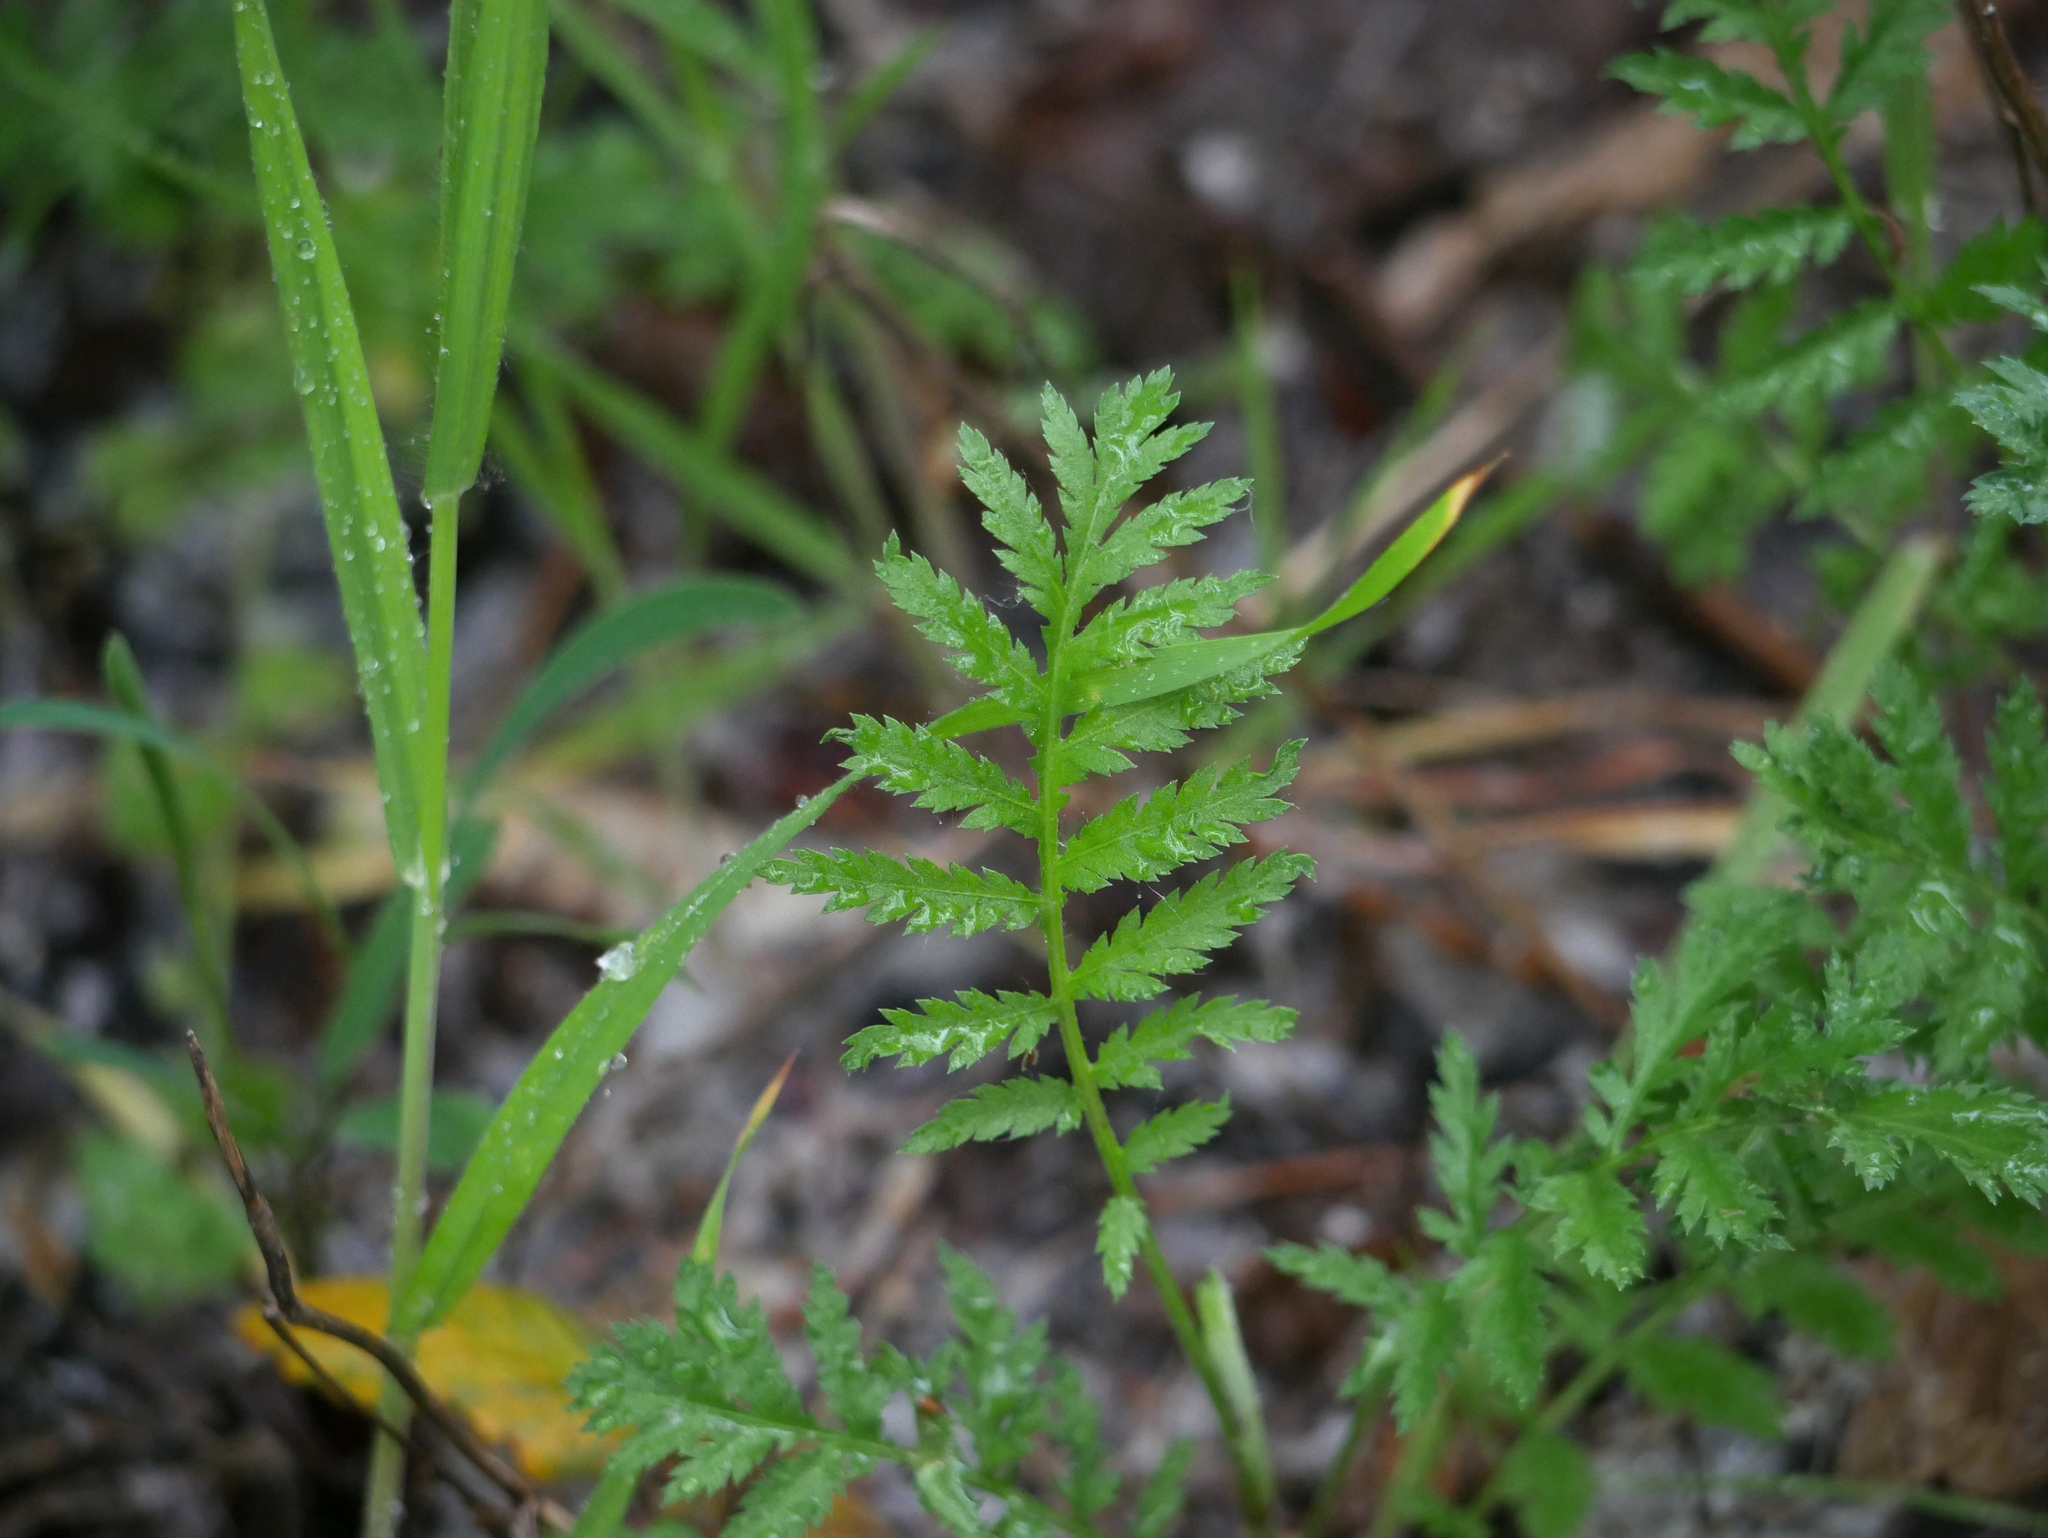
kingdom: Plantae
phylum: Tracheophyta
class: Magnoliopsida
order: Asterales
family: Asteraceae
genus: Tanacetum
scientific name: Tanacetum vulgare
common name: Common tansy
